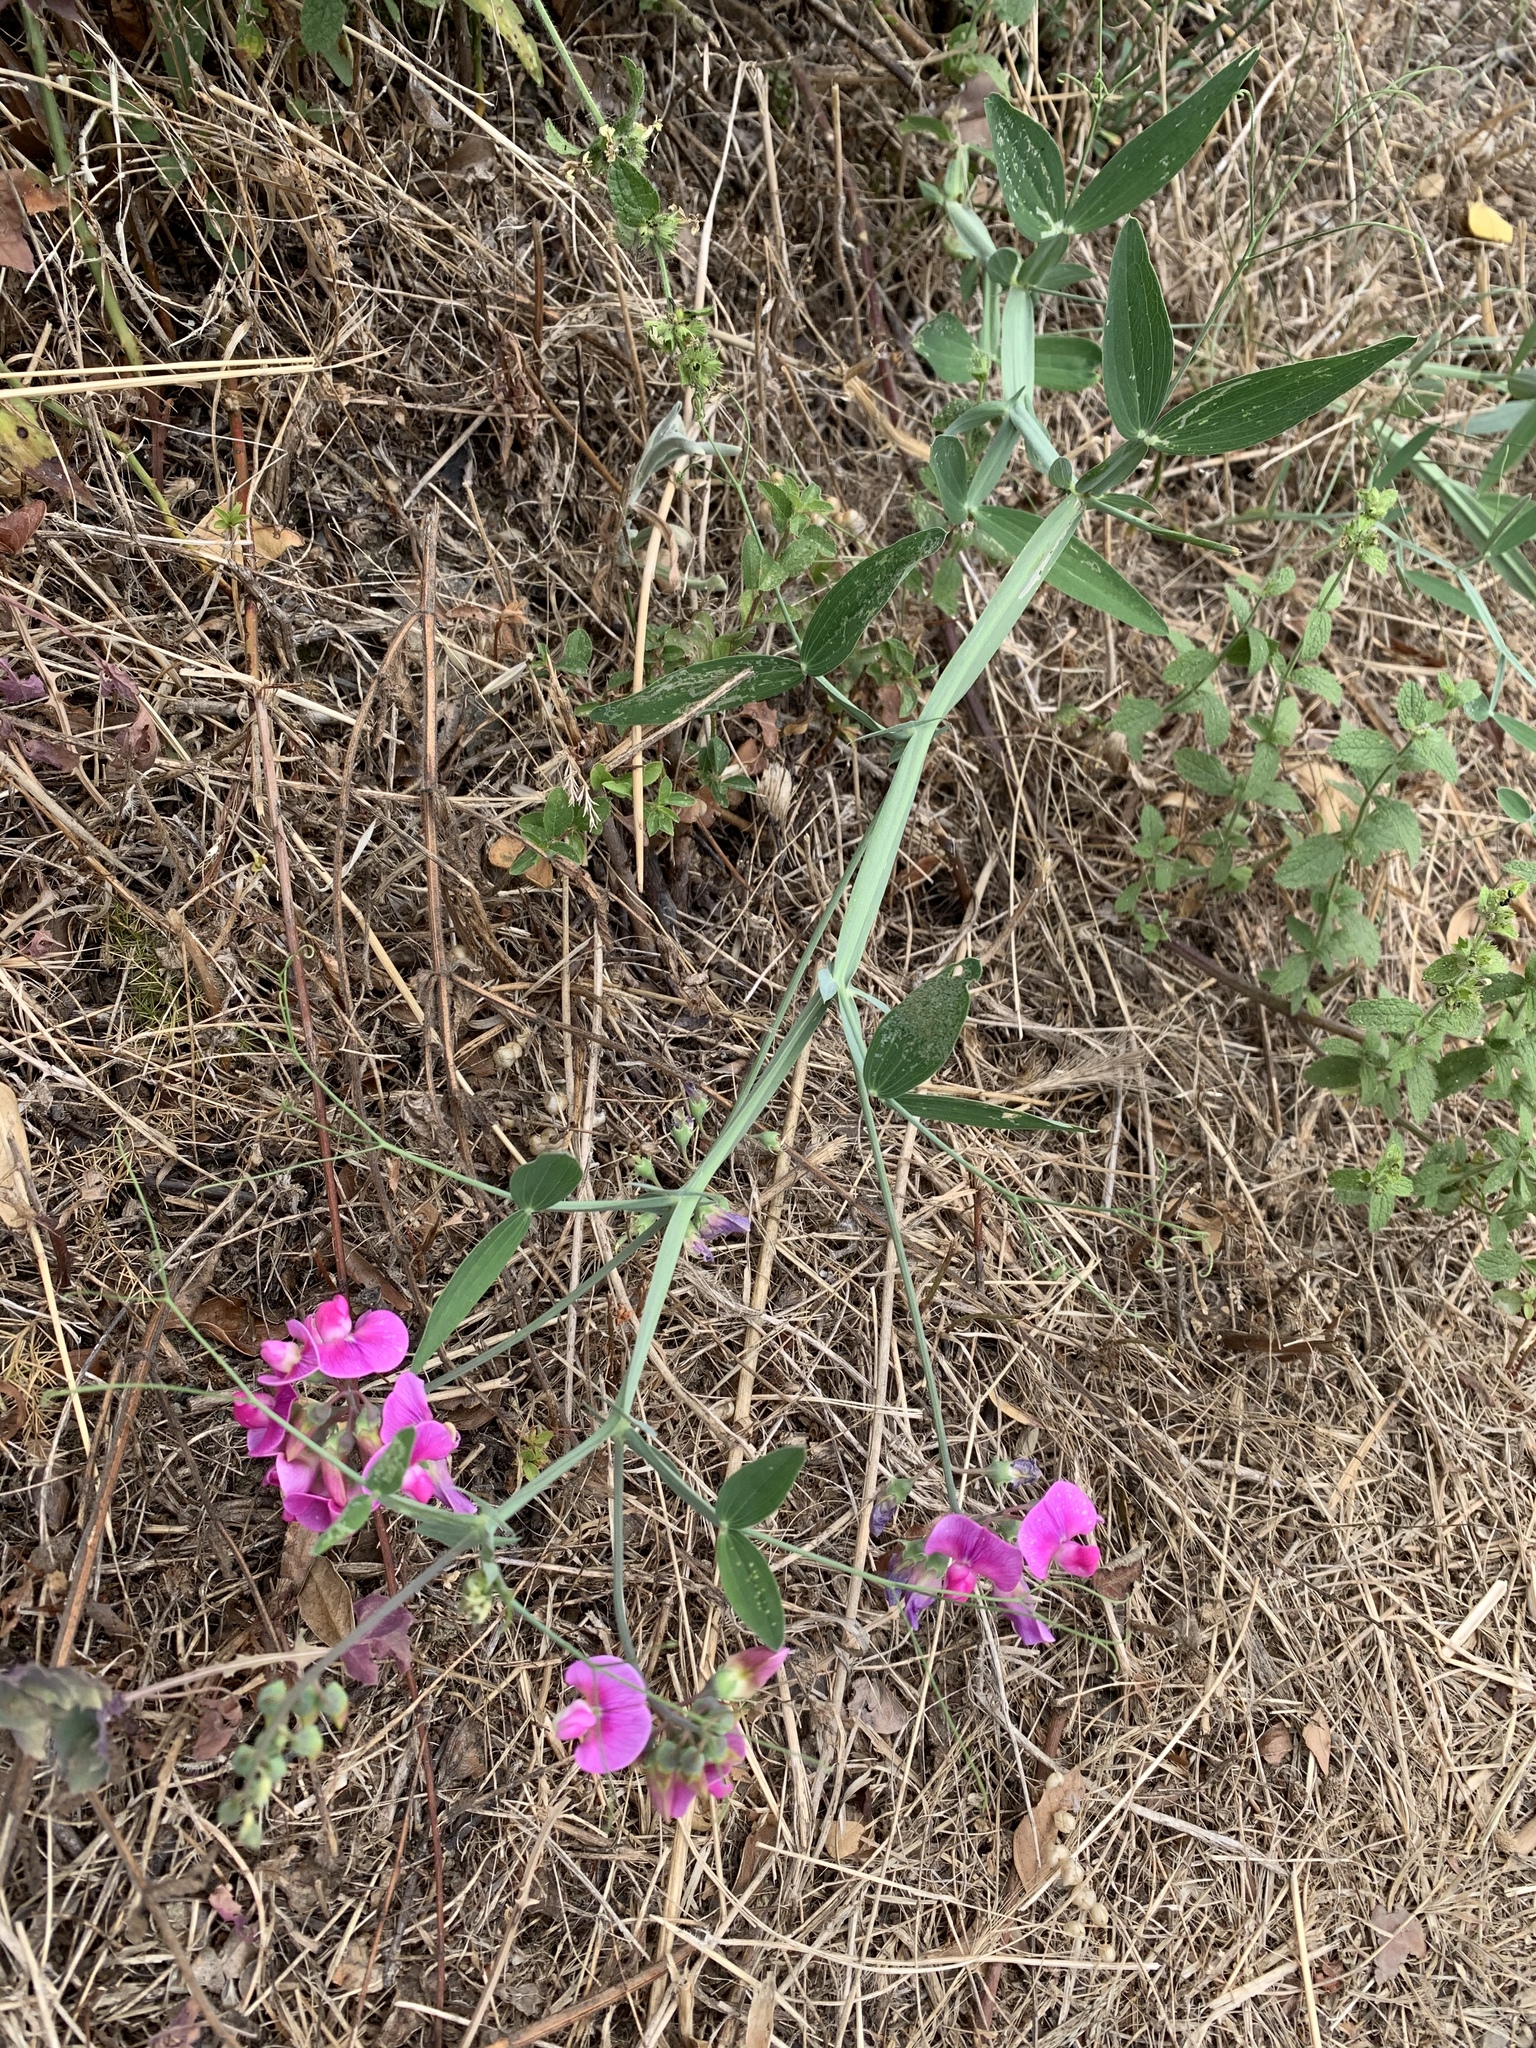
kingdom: Plantae
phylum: Tracheophyta
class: Magnoliopsida
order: Fabales
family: Fabaceae
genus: Lathyrus
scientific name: Lathyrus latifolius
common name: Perennial pea
